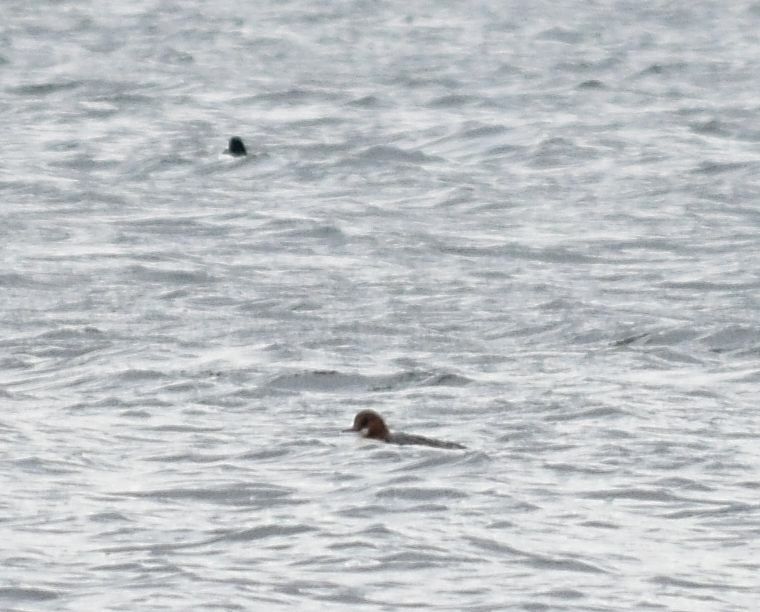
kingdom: Animalia
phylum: Chordata
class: Aves
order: Anseriformes
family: Anatidae
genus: Mergus
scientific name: Mergus merganser
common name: Common merganser
